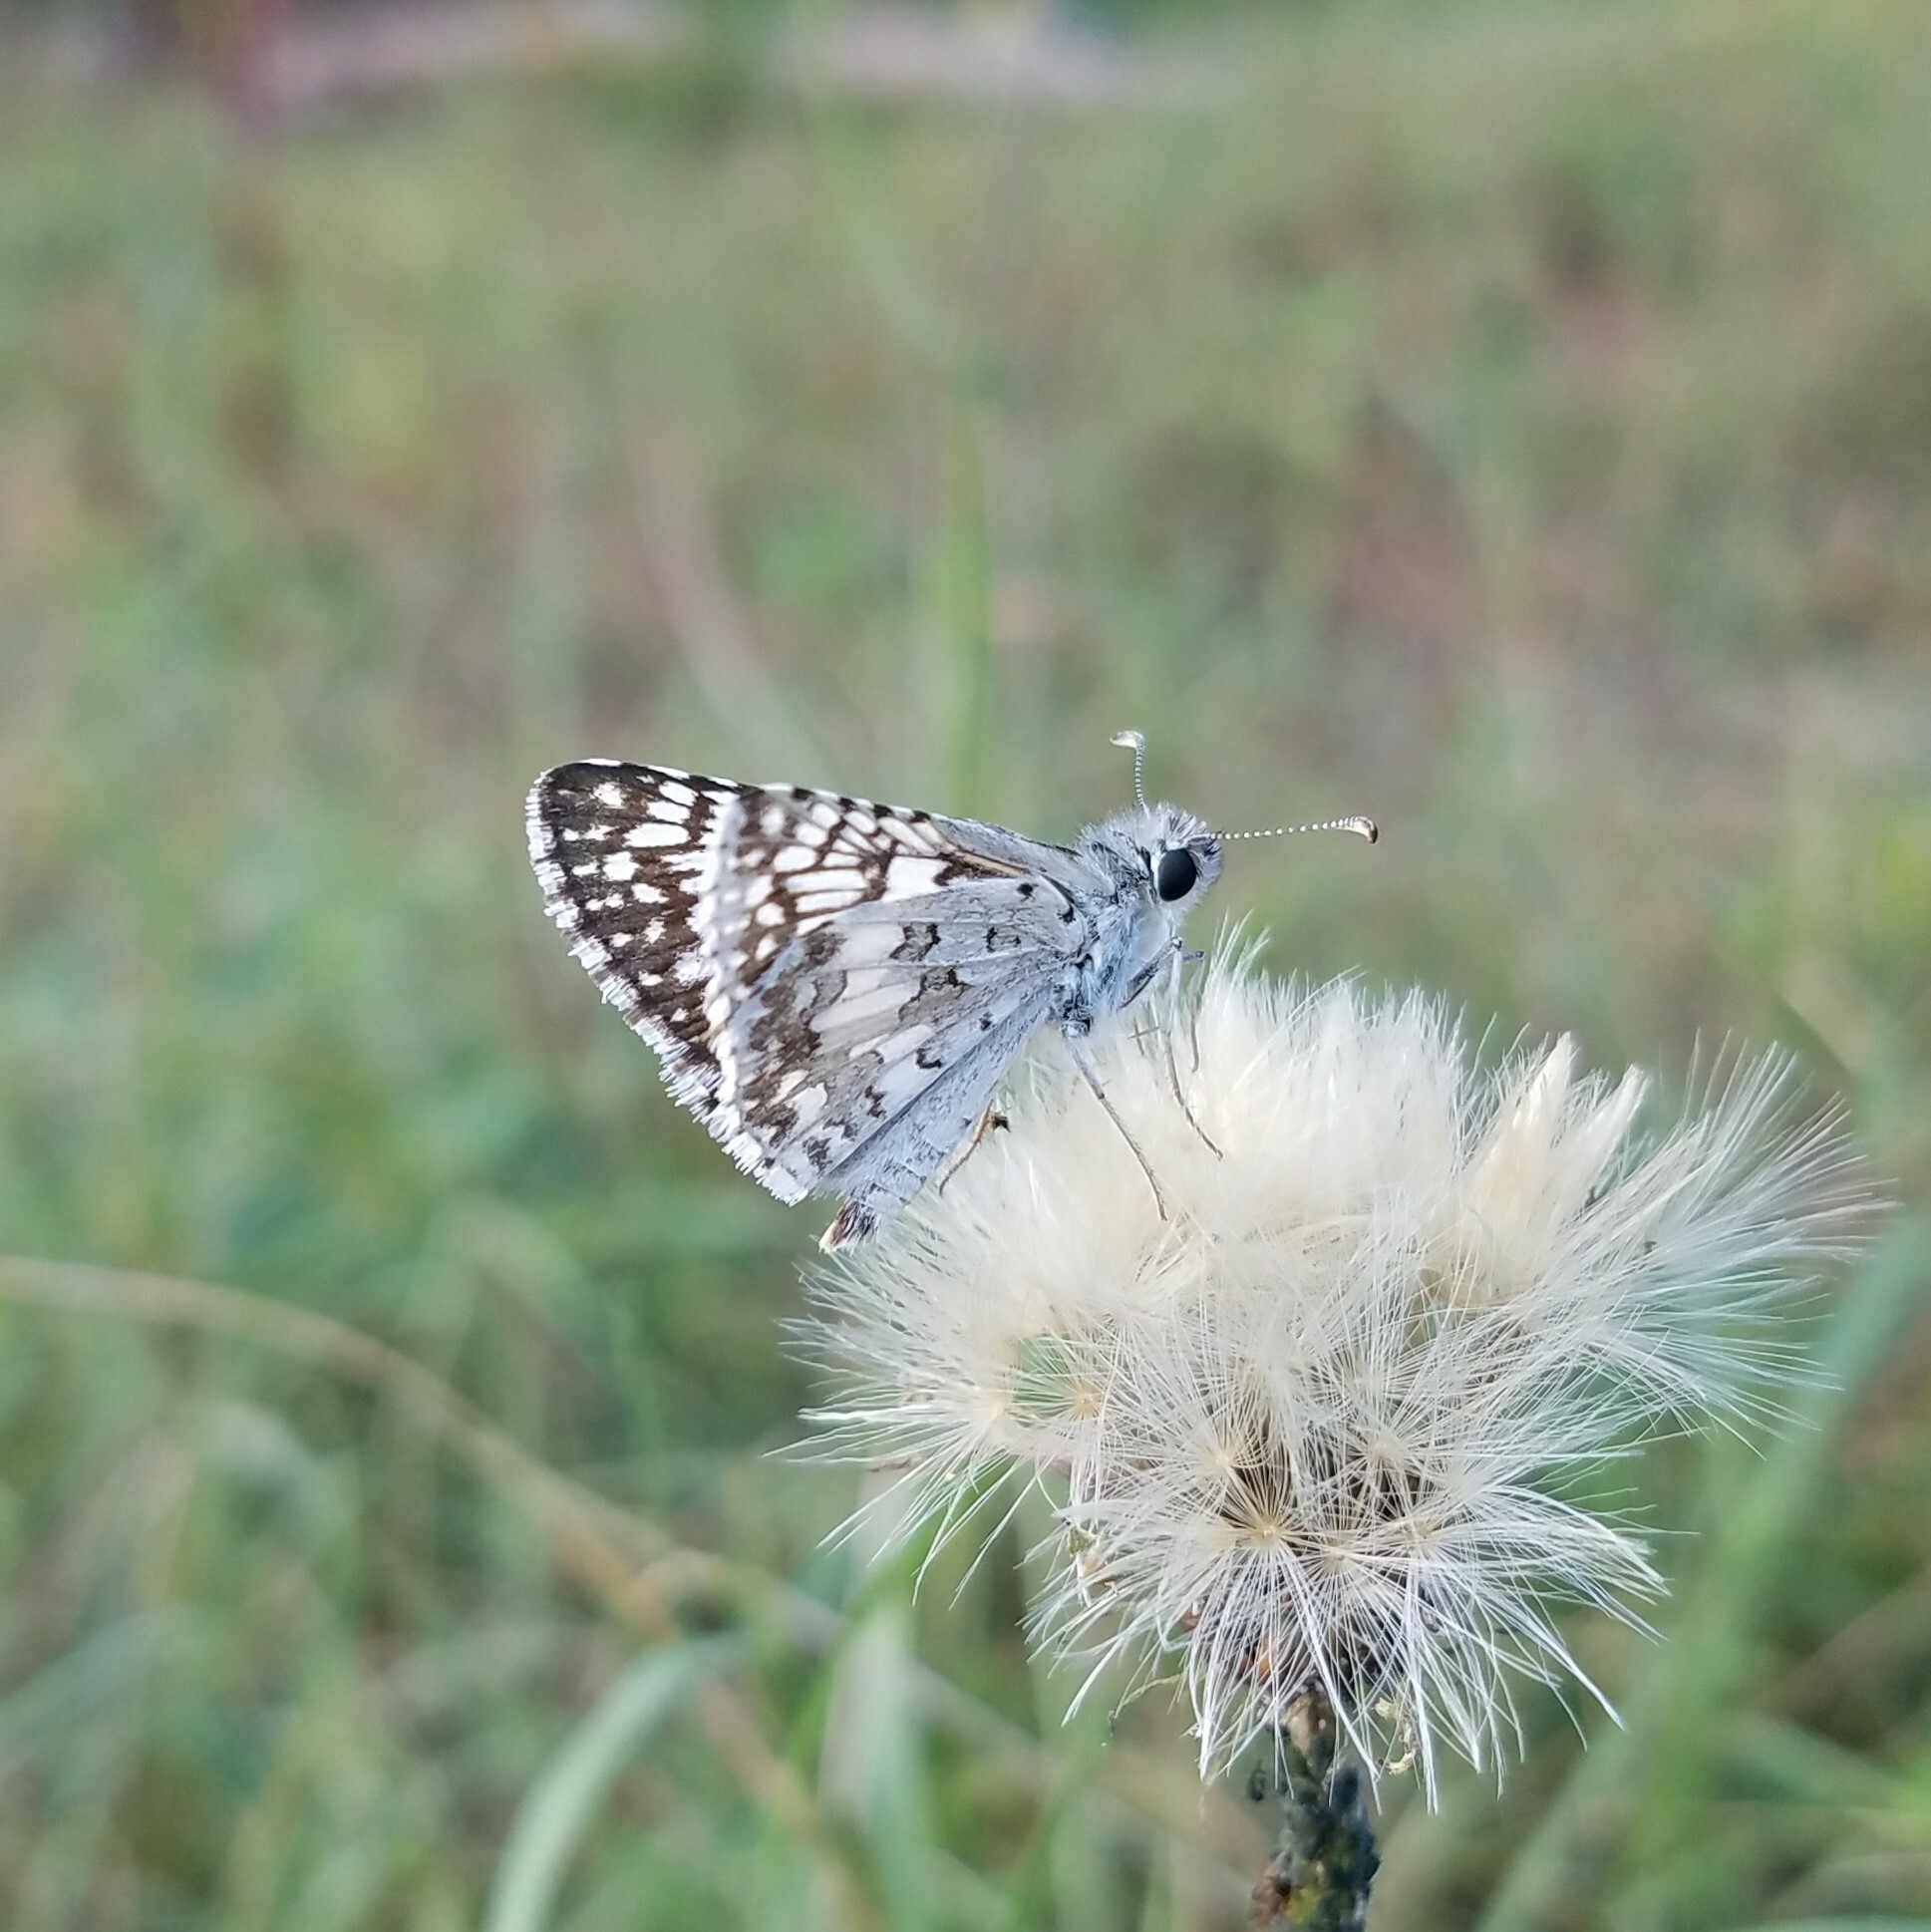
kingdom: Animalia
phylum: Arthropoda
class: Insecta
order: Lepidoptera
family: Hesperiidae
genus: Burnsius
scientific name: Burnsius communis
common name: Common checkered-skipper
